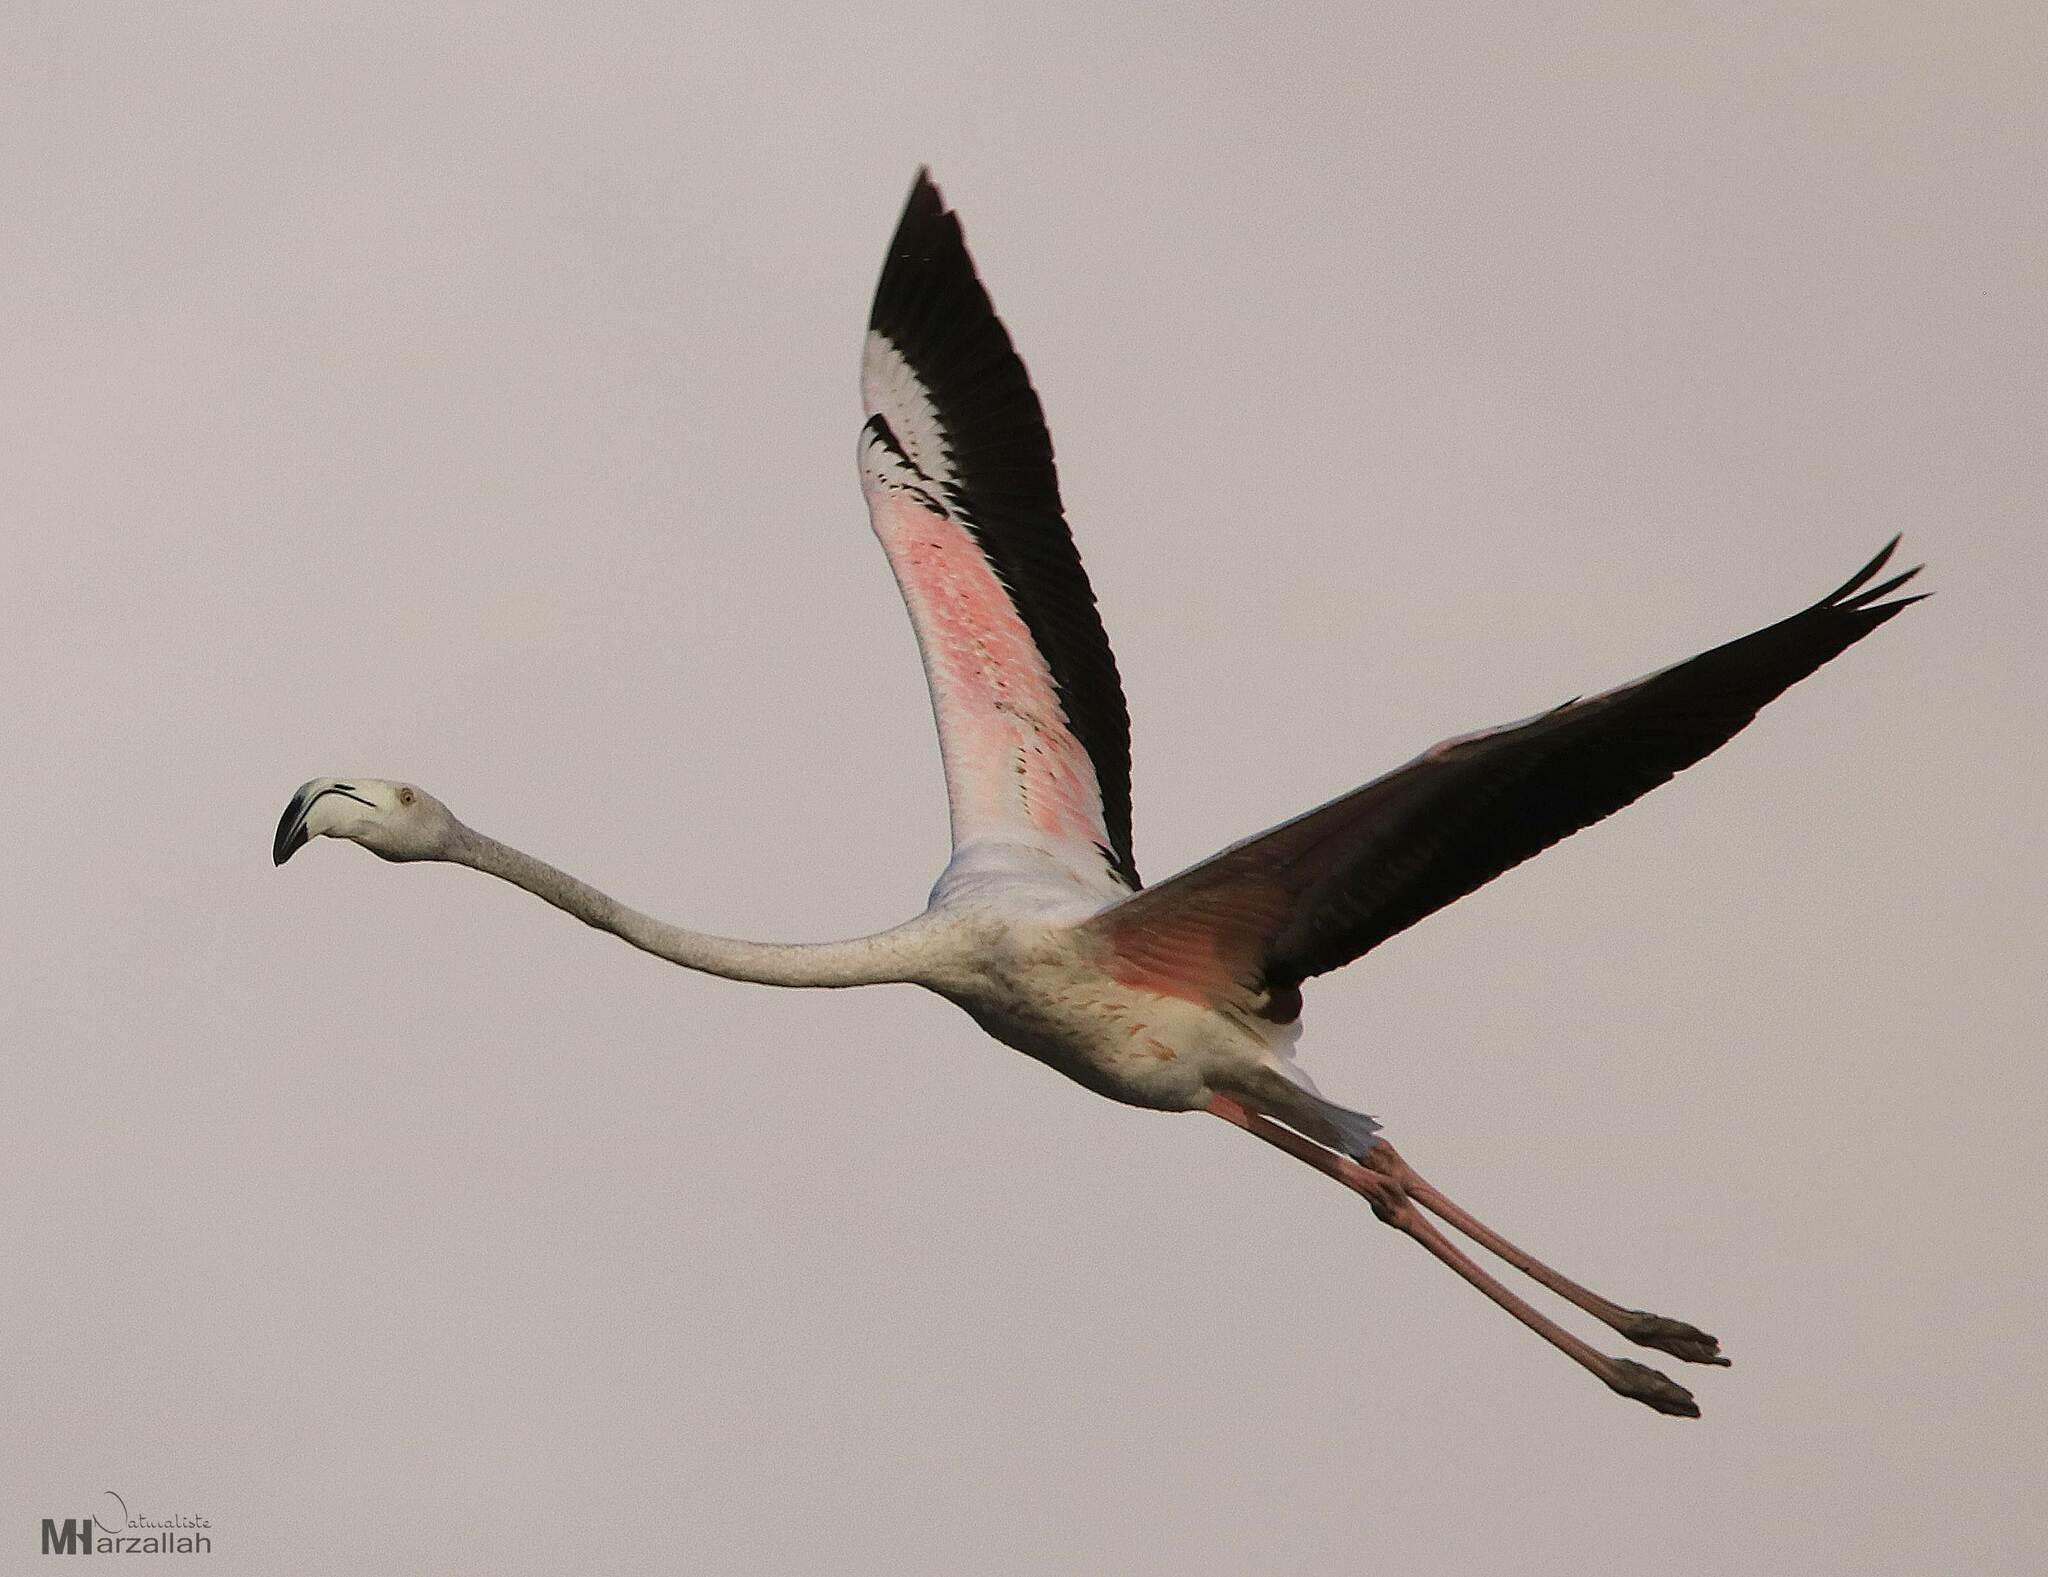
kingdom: Animalia
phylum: Chordata
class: Aves
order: Phoenicopteriformes
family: Phoenicopteridae
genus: Phoenicopterus
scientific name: Phoenicopterus roseus
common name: Greater flamingo
